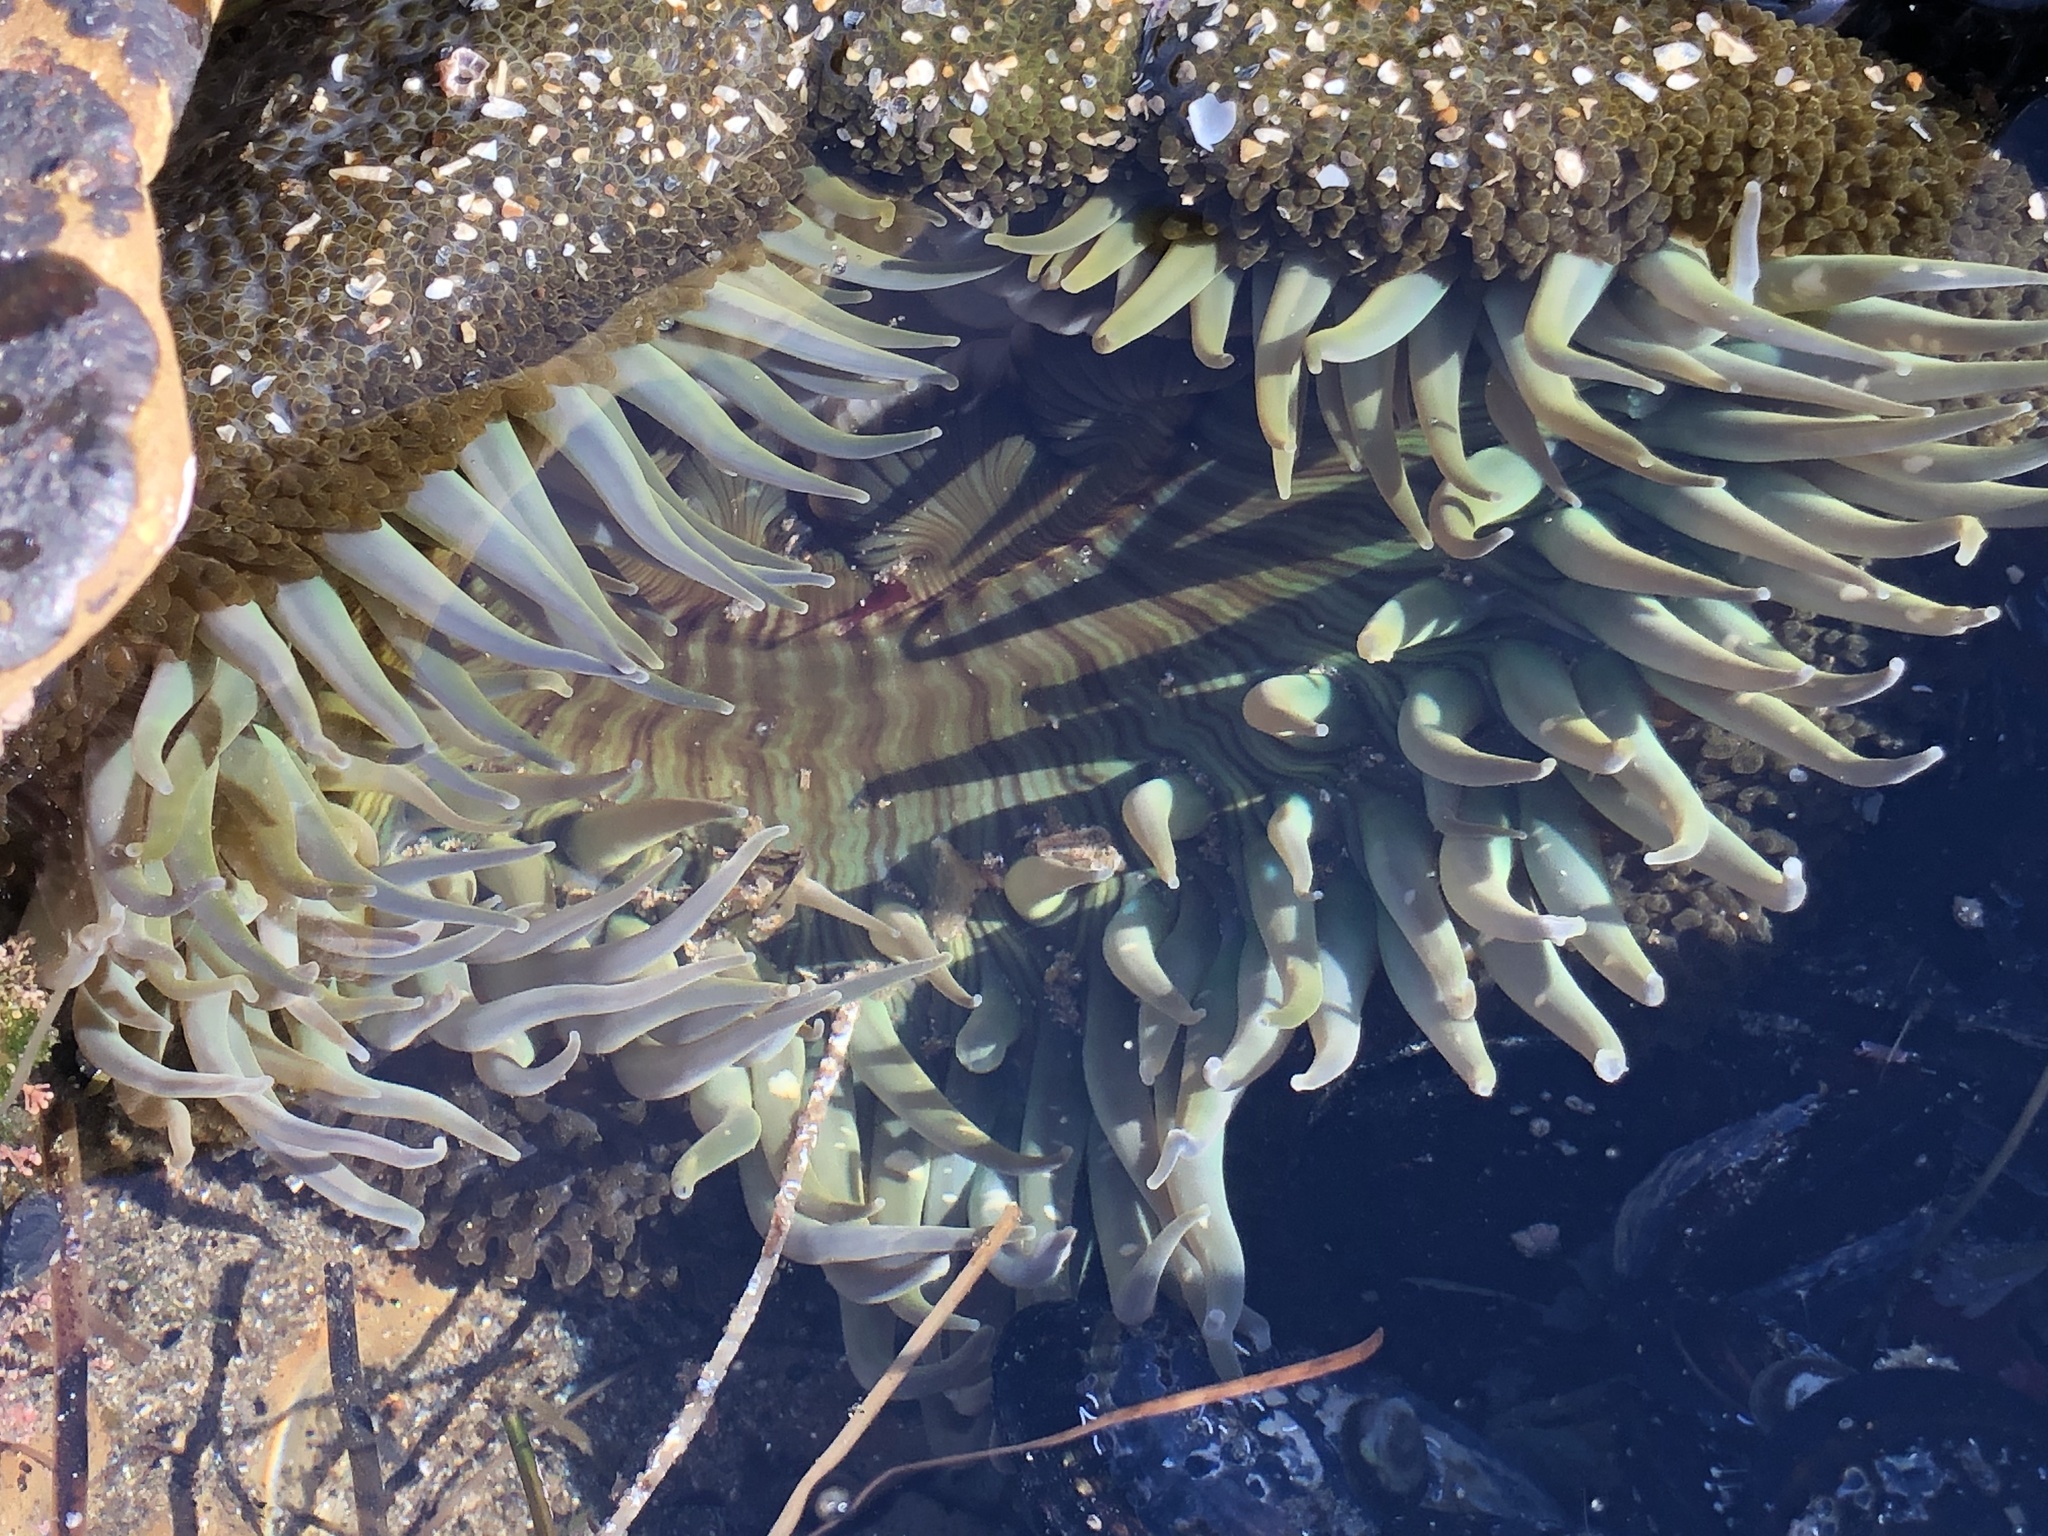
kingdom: Animalia
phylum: Cnidaria
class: Anthozoa
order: Actiniaria
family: Actiniidae
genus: Anthopleura
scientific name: Anthopleura sola
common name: Sun anemone
